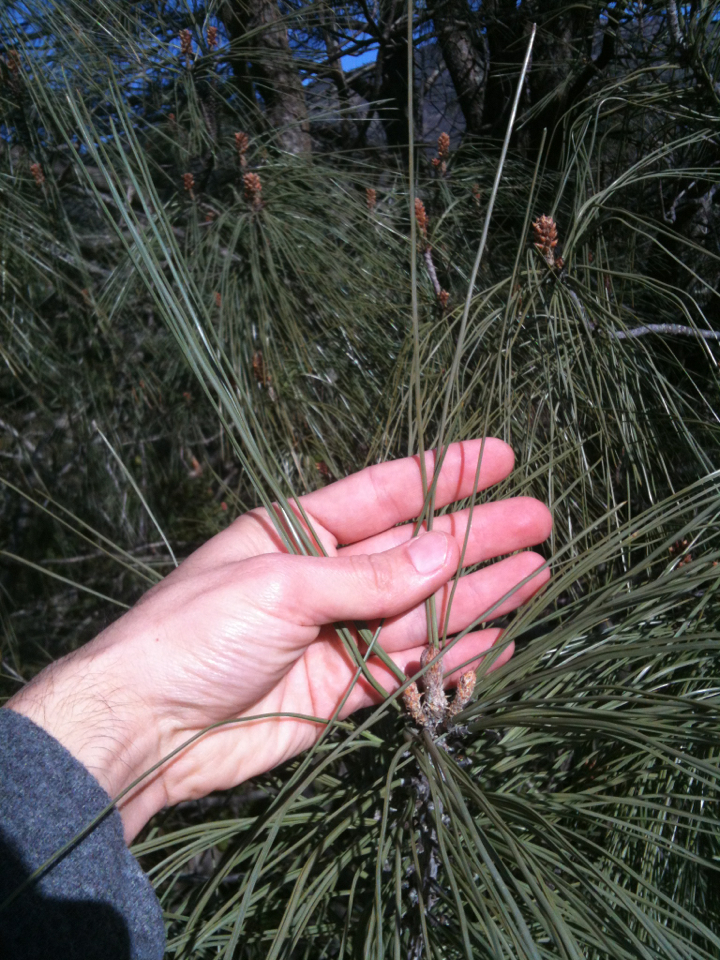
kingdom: Plantae
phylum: Tracheophyta
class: Pinopsida
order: Pinales
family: Pinaceae
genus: Pinus
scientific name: Pinus sabiniana
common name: Bull pine
